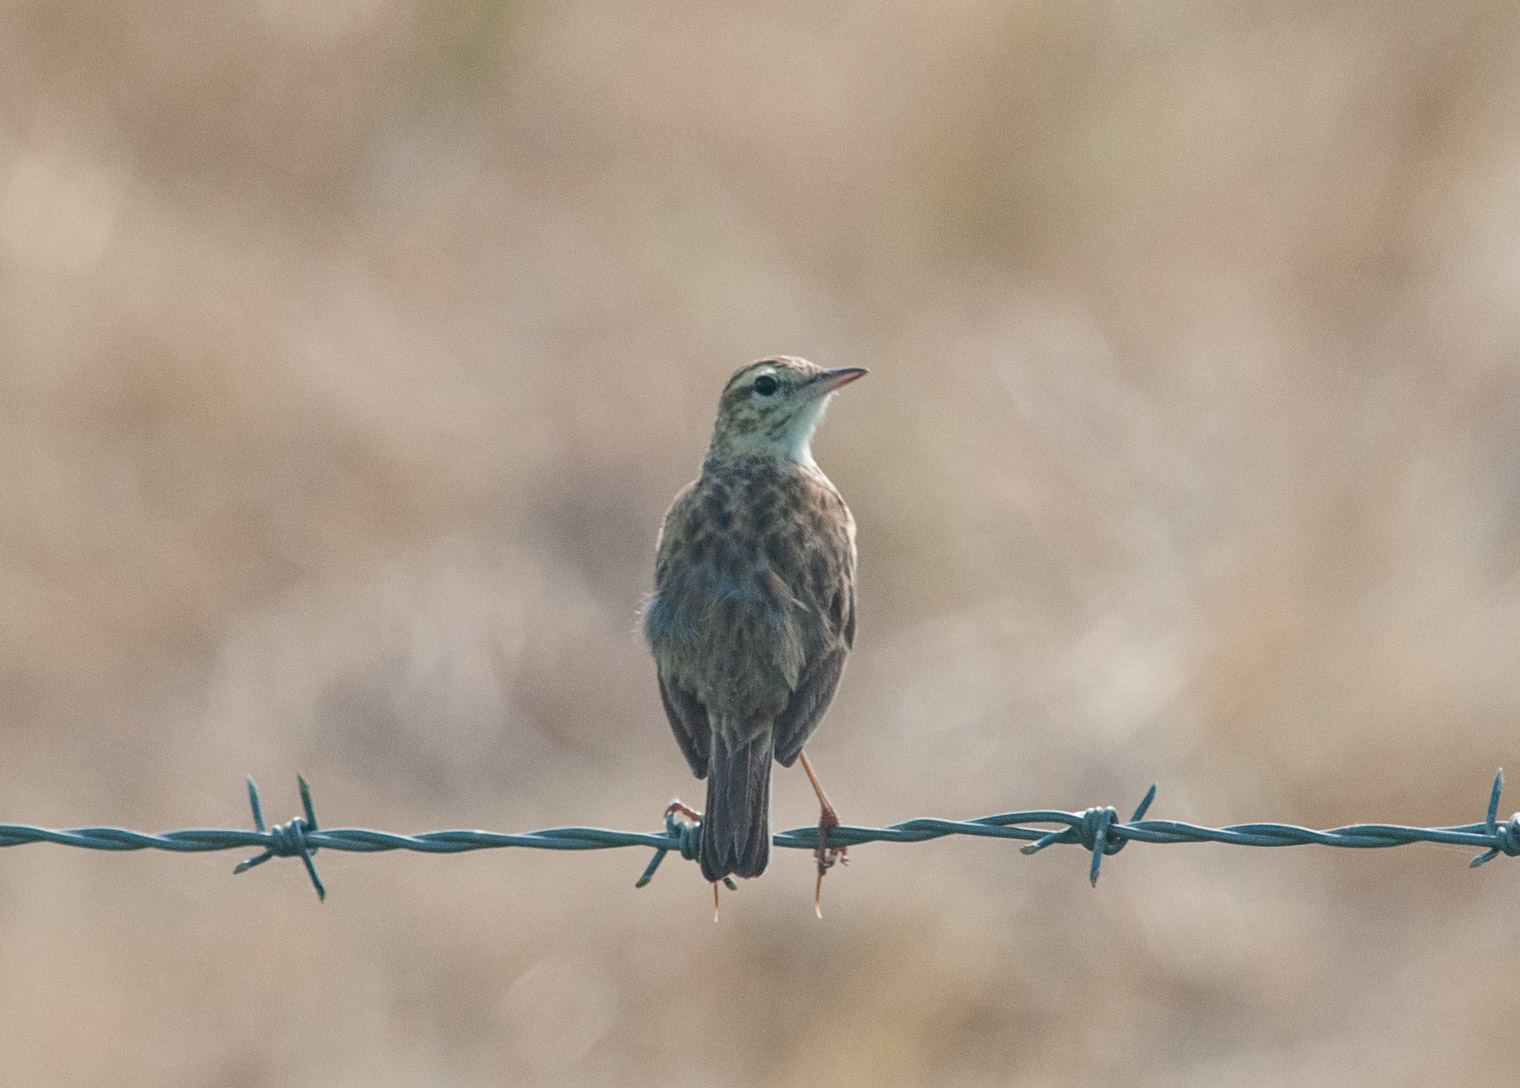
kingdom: Animalia
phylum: Chordata
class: Aves
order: Passeriformes
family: Motacillidae
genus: Anthus
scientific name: Anthus australis
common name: Australian pipit
